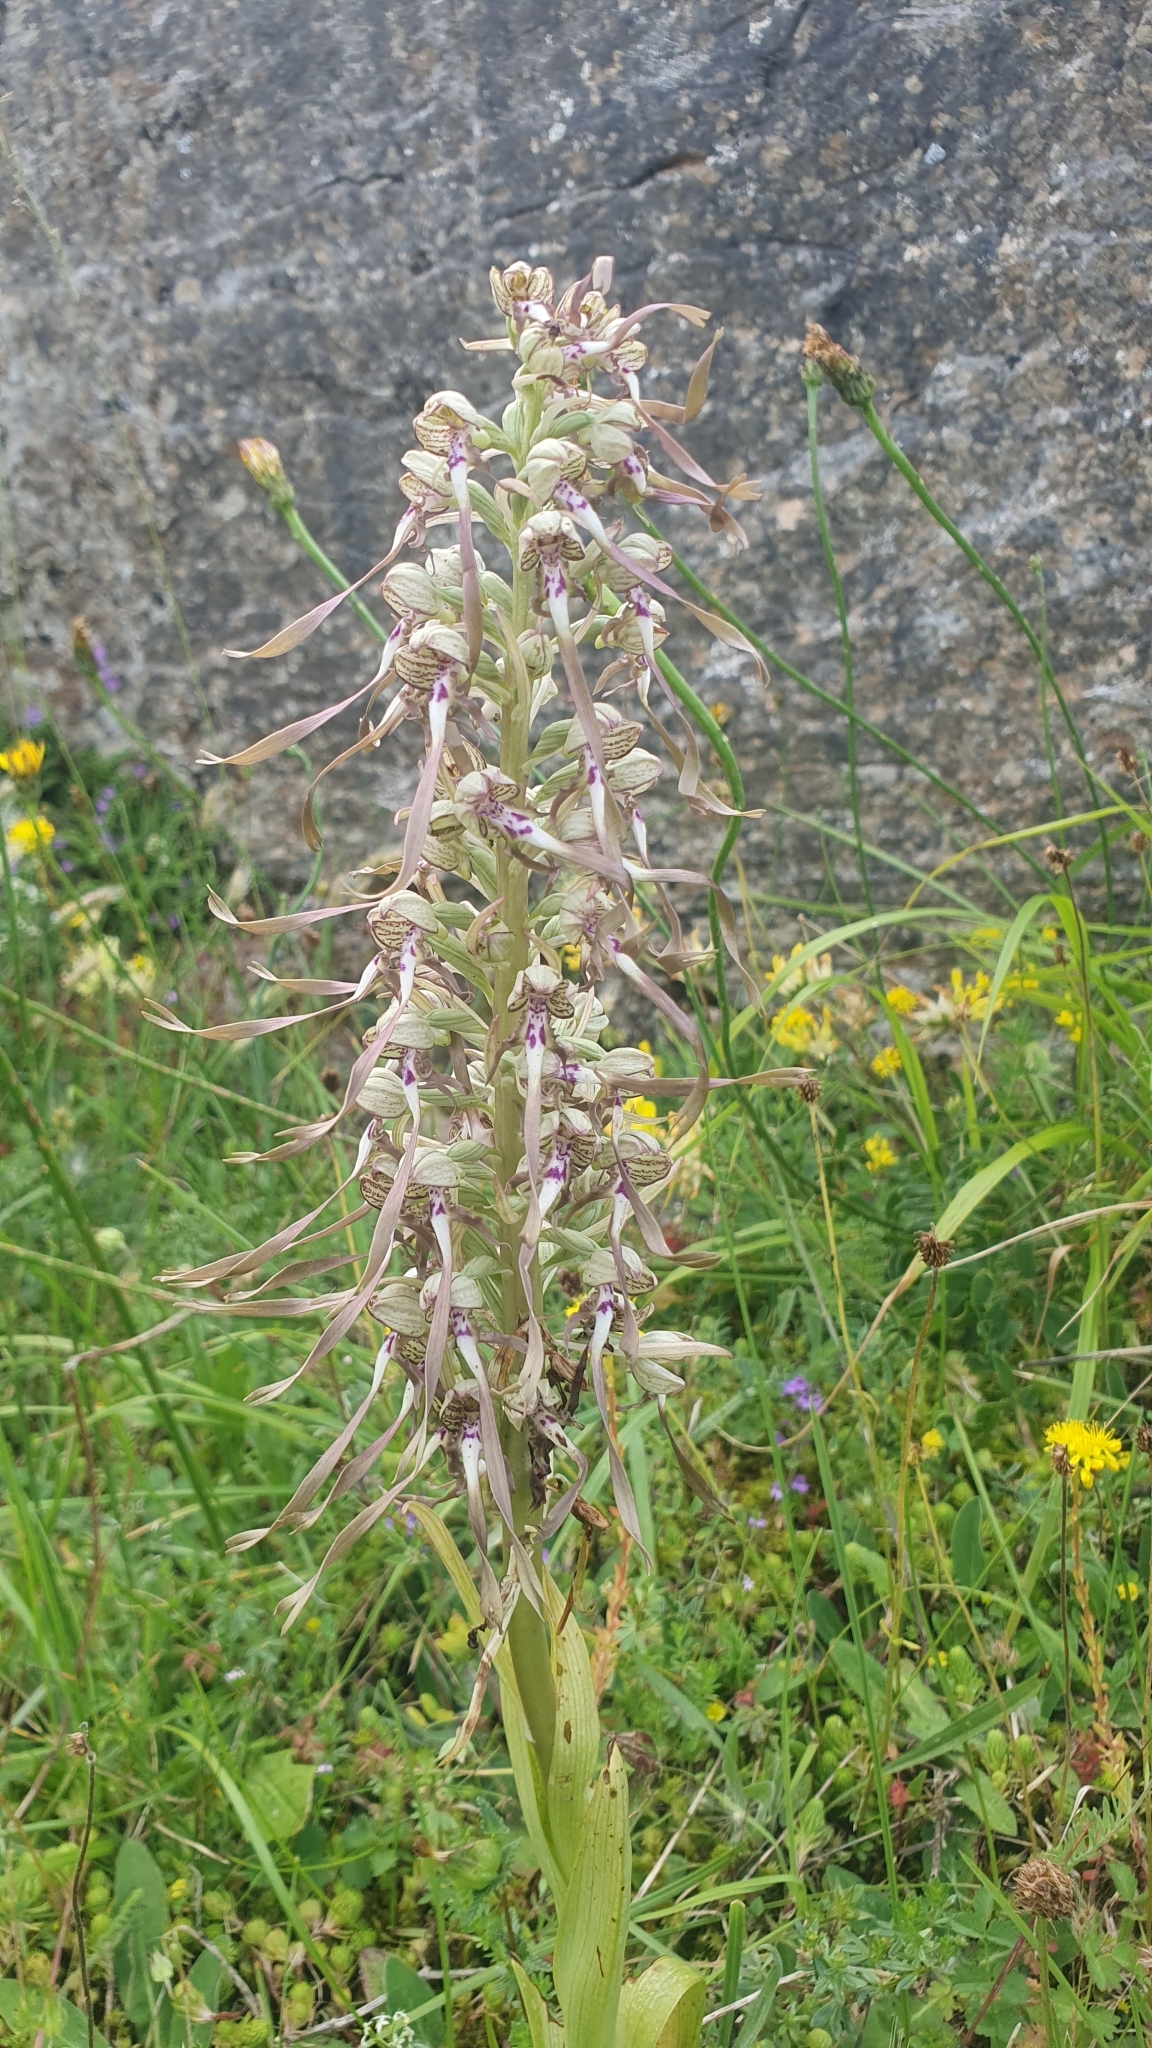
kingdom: Plantae
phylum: Tracheophyta
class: Liliopsida
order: Asparagales
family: Orchidaceae
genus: Himantoglossum
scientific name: Himantoglossum hircinum
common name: Lizard orchid
